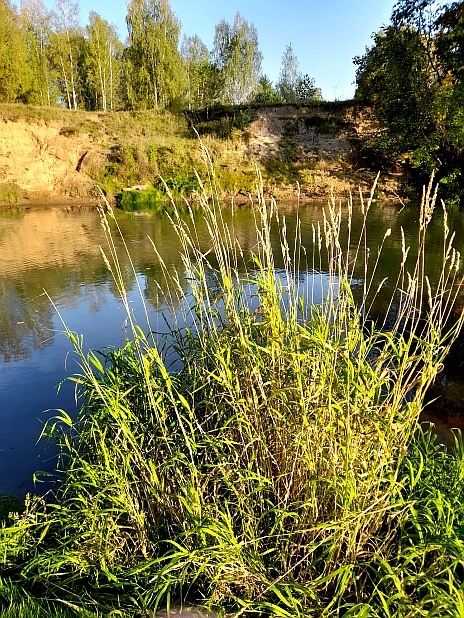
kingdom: Plantae
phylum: Tracheophyta
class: Liliopsida
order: Poales
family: Poaceae
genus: Phalaris
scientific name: Phalaris arundinacea
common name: Reed canary-grass
